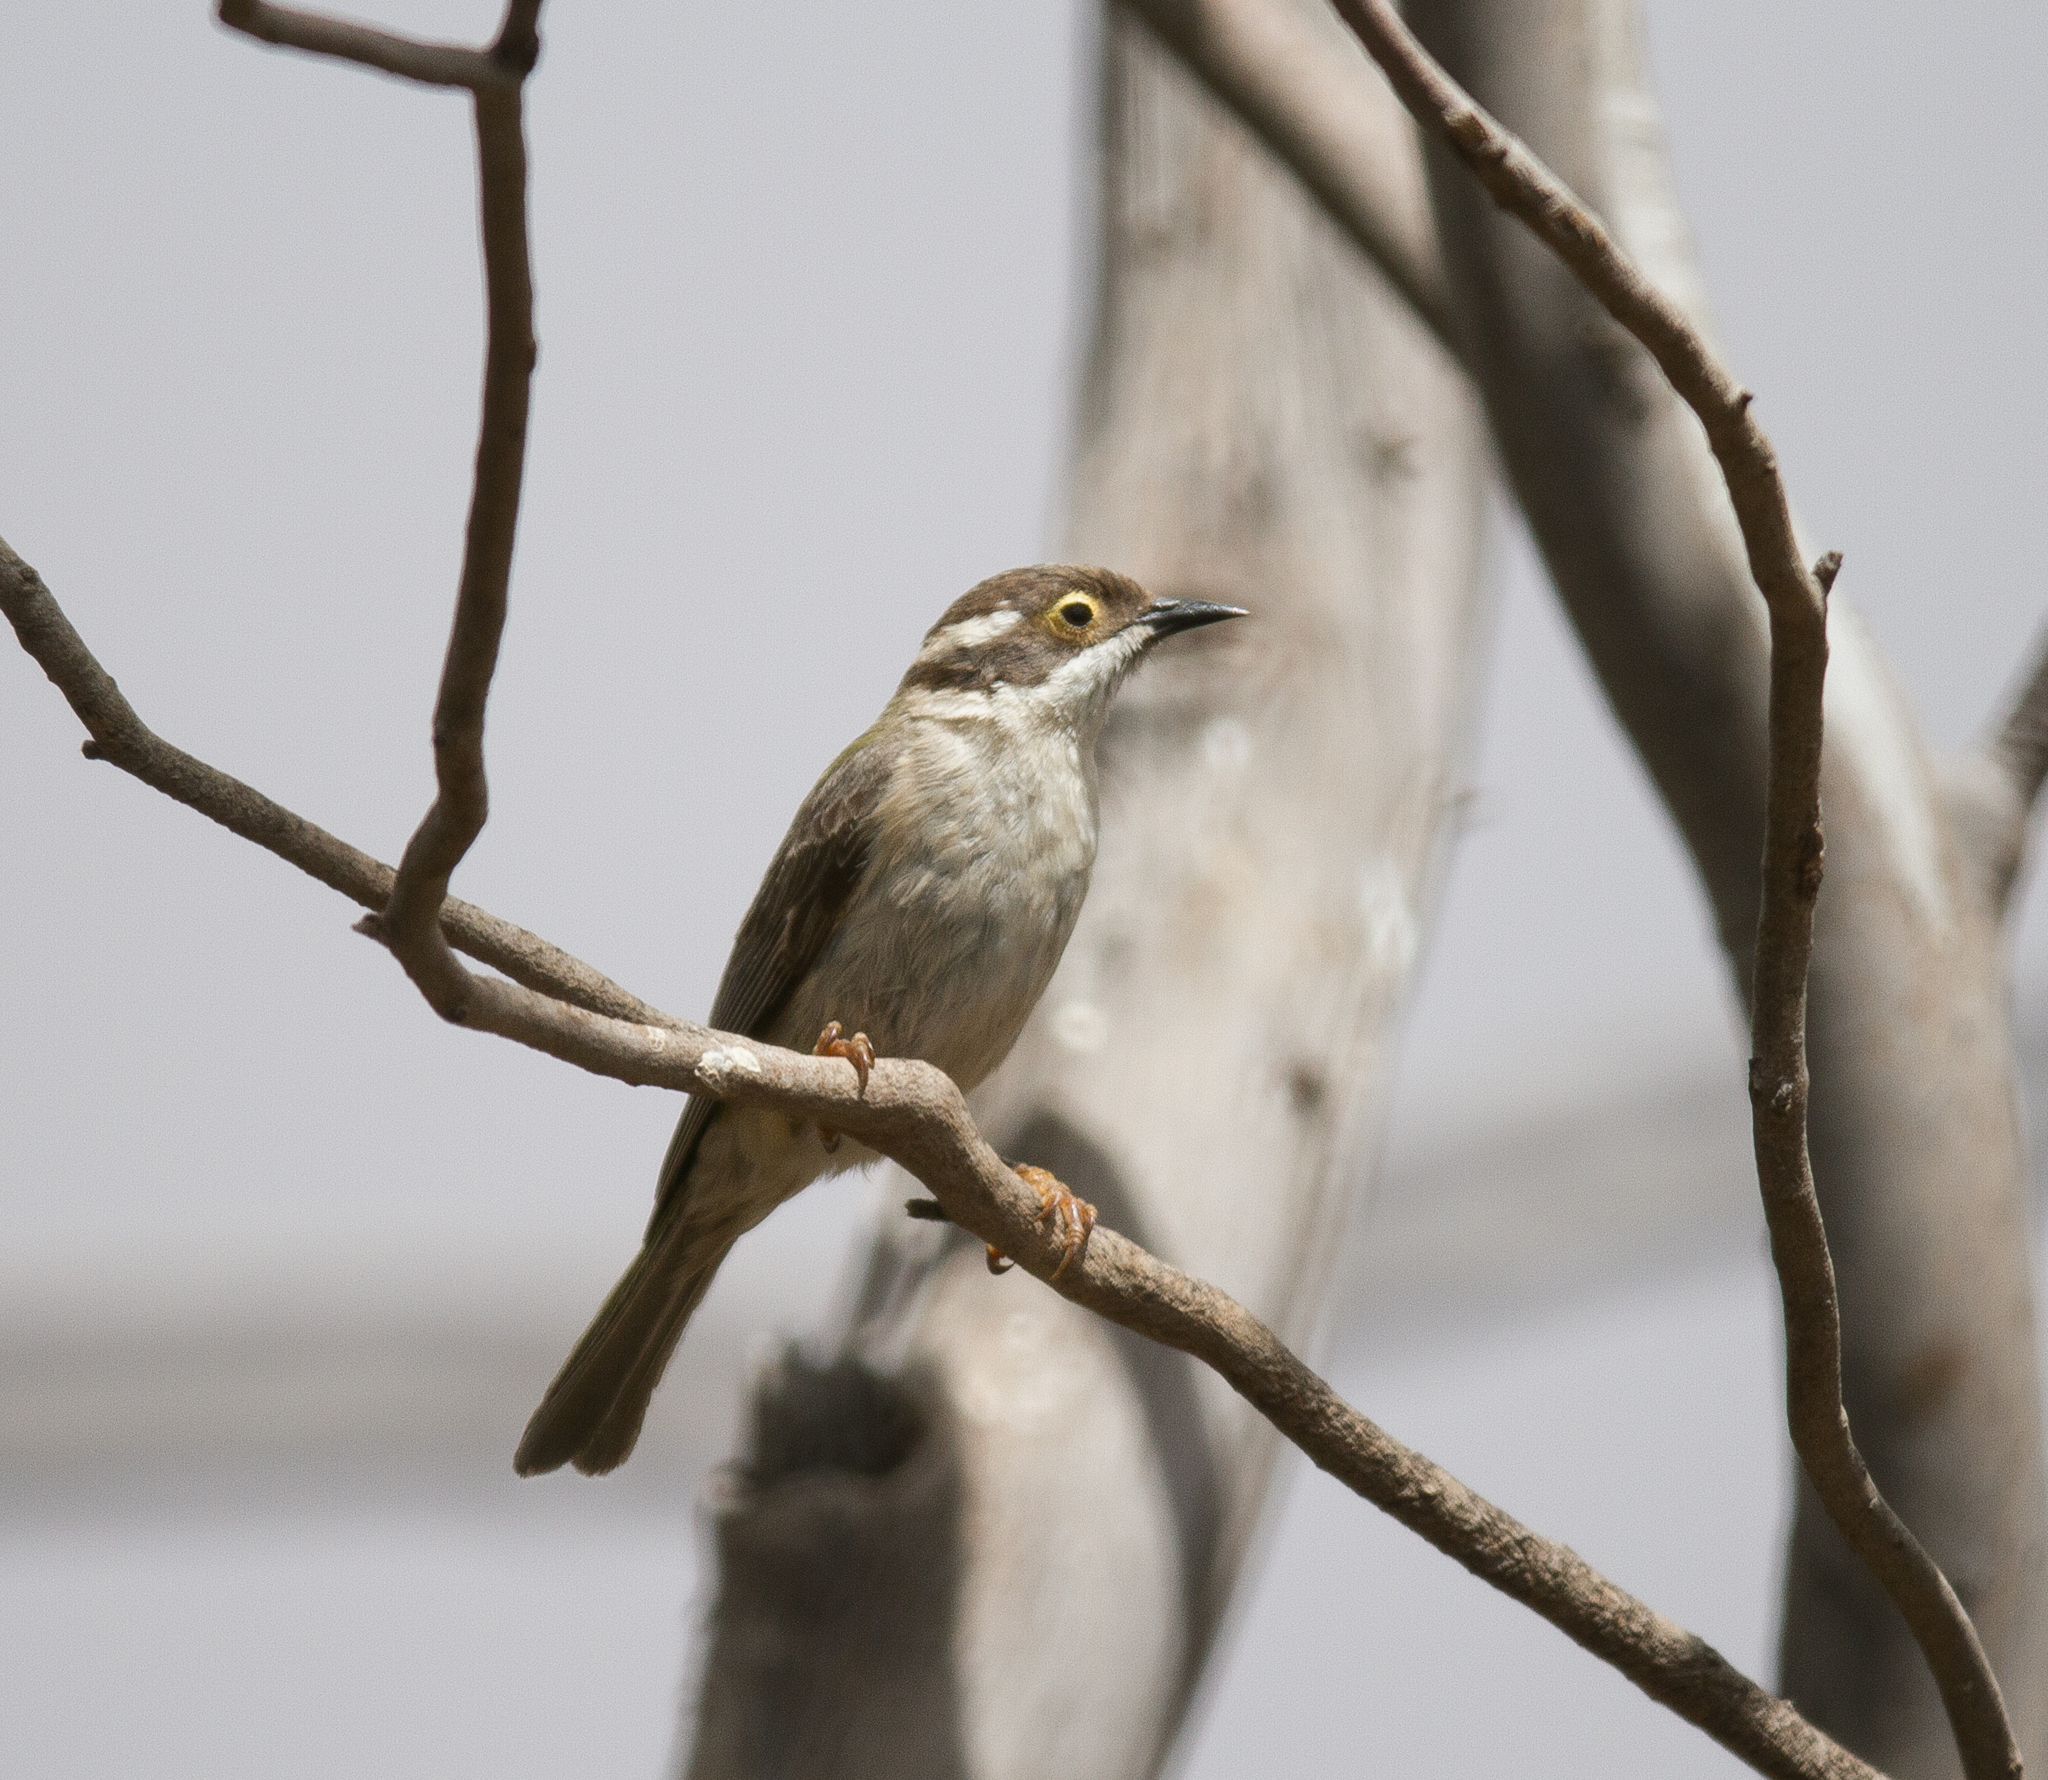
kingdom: Animalia
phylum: Chordata
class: Aves
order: Passeriformes
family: Meliphagidae
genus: Melithreptus
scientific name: Melithreptus brevirostris
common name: Brown-headed honeyeater
